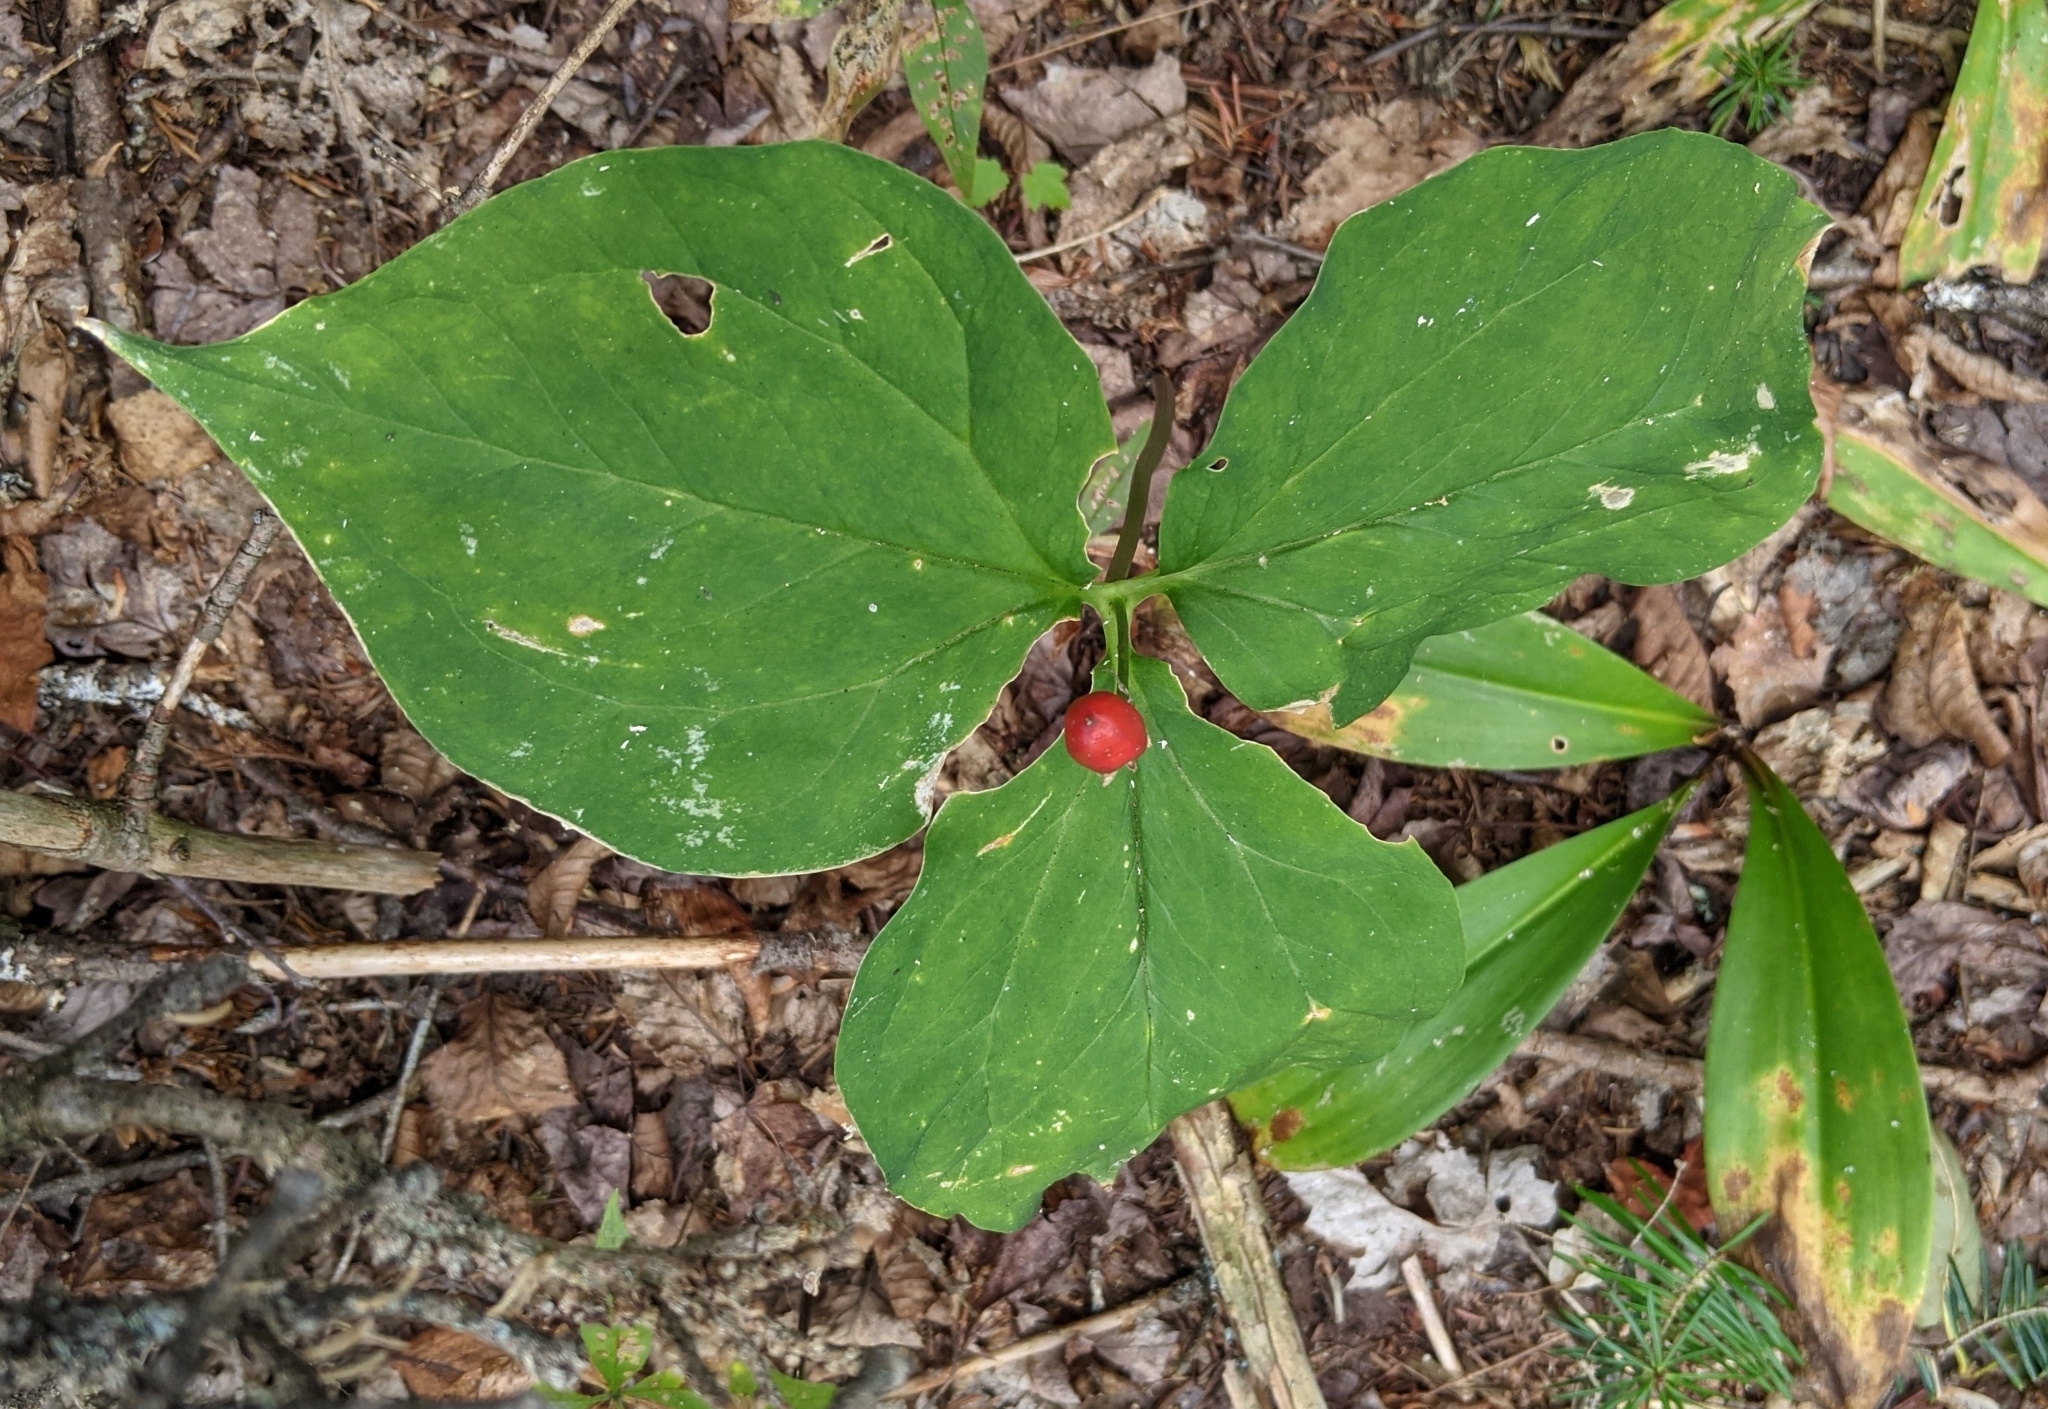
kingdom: Plantae
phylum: Tracheophyta
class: Liliopsida
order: Liliales
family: Melanthiaceae
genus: Trillium
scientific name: Trillium undulatum
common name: Paint trillium
